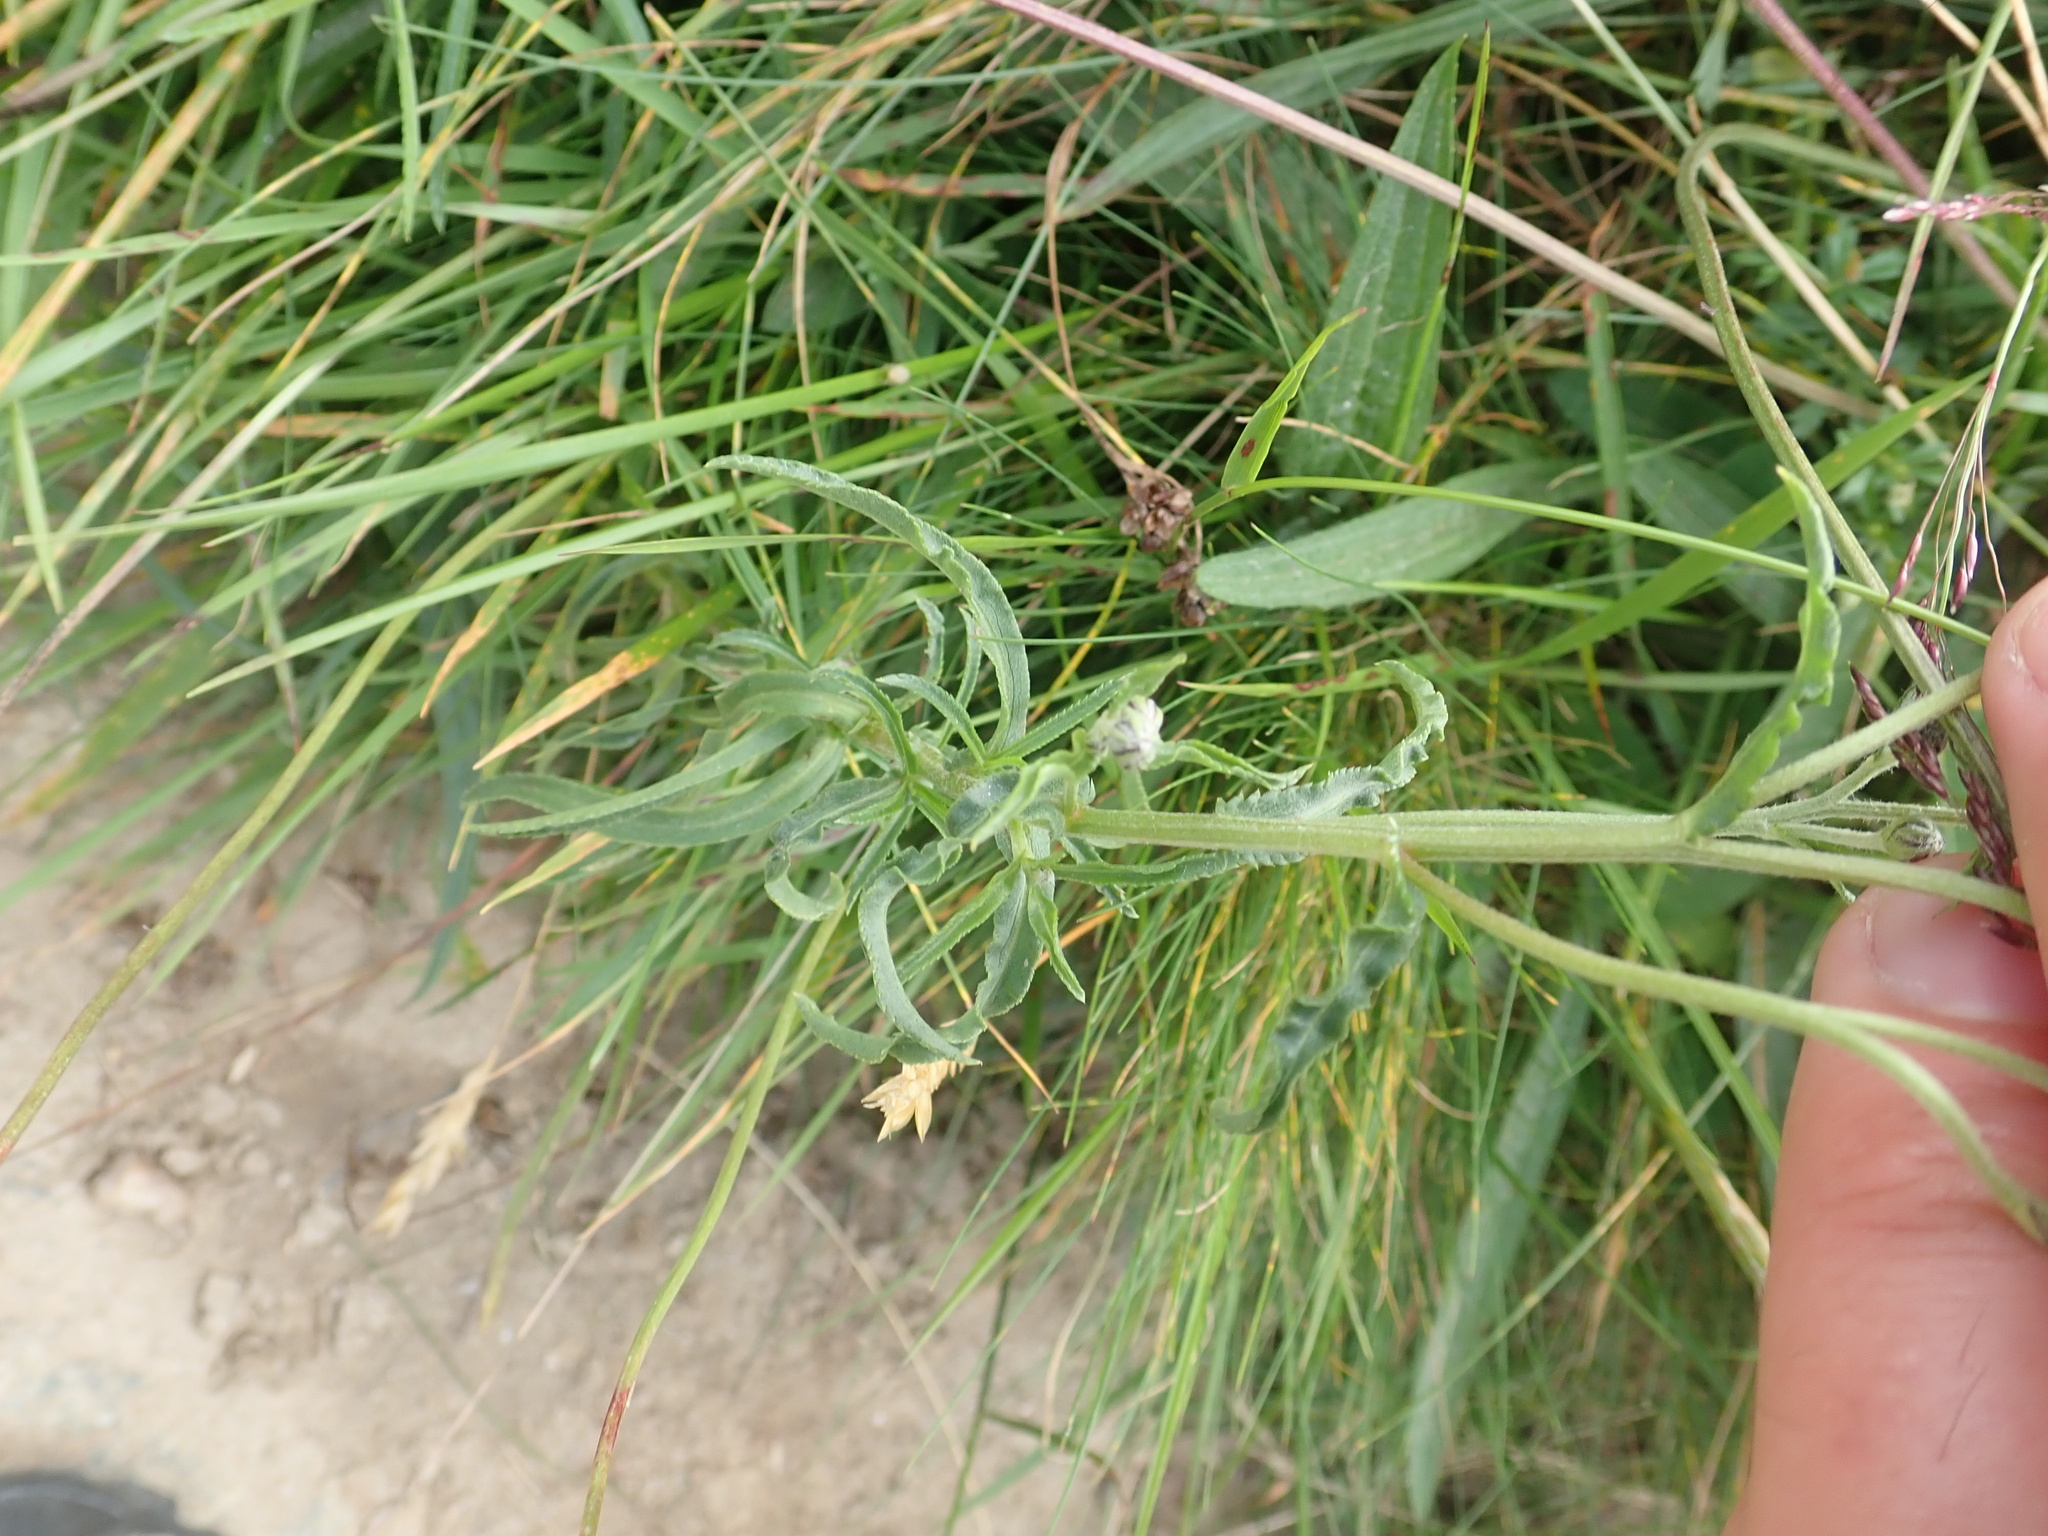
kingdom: Plantae
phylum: Tracheophyta
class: Magnoliopsida
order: Asterales
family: Asteraceae
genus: Achillea
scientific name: Achillea ptarmica
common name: Sneezeweed
